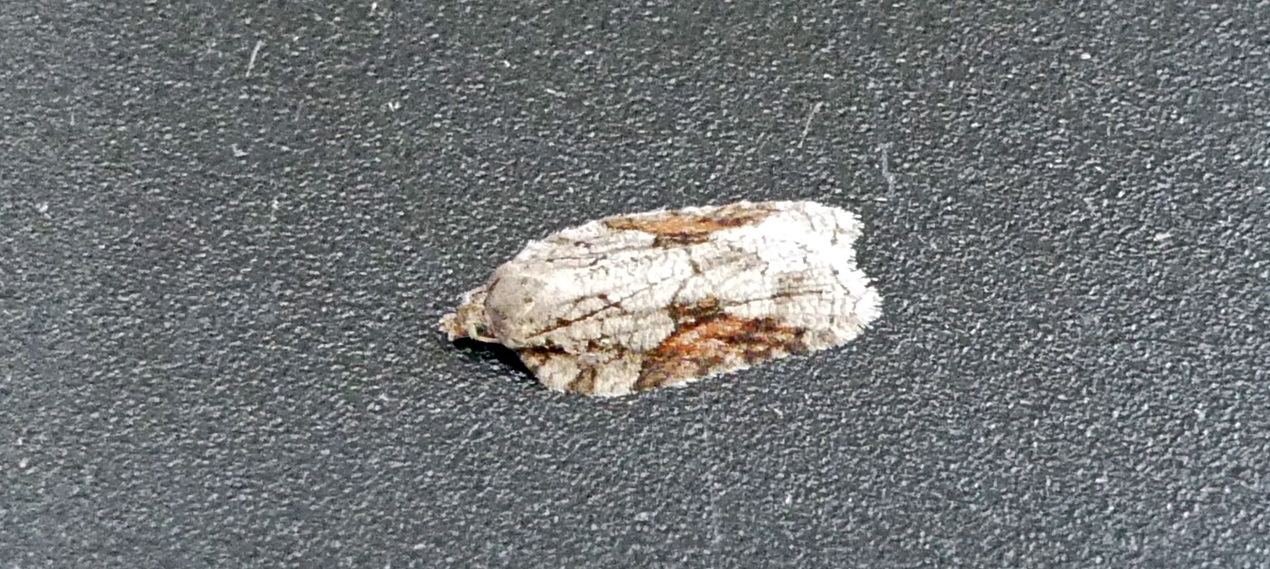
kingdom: Animalia
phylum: Arthropoda
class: Insecta
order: Lepidoptera
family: Tortricidae
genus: Acleris
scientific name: Acleris ptychogrammos
